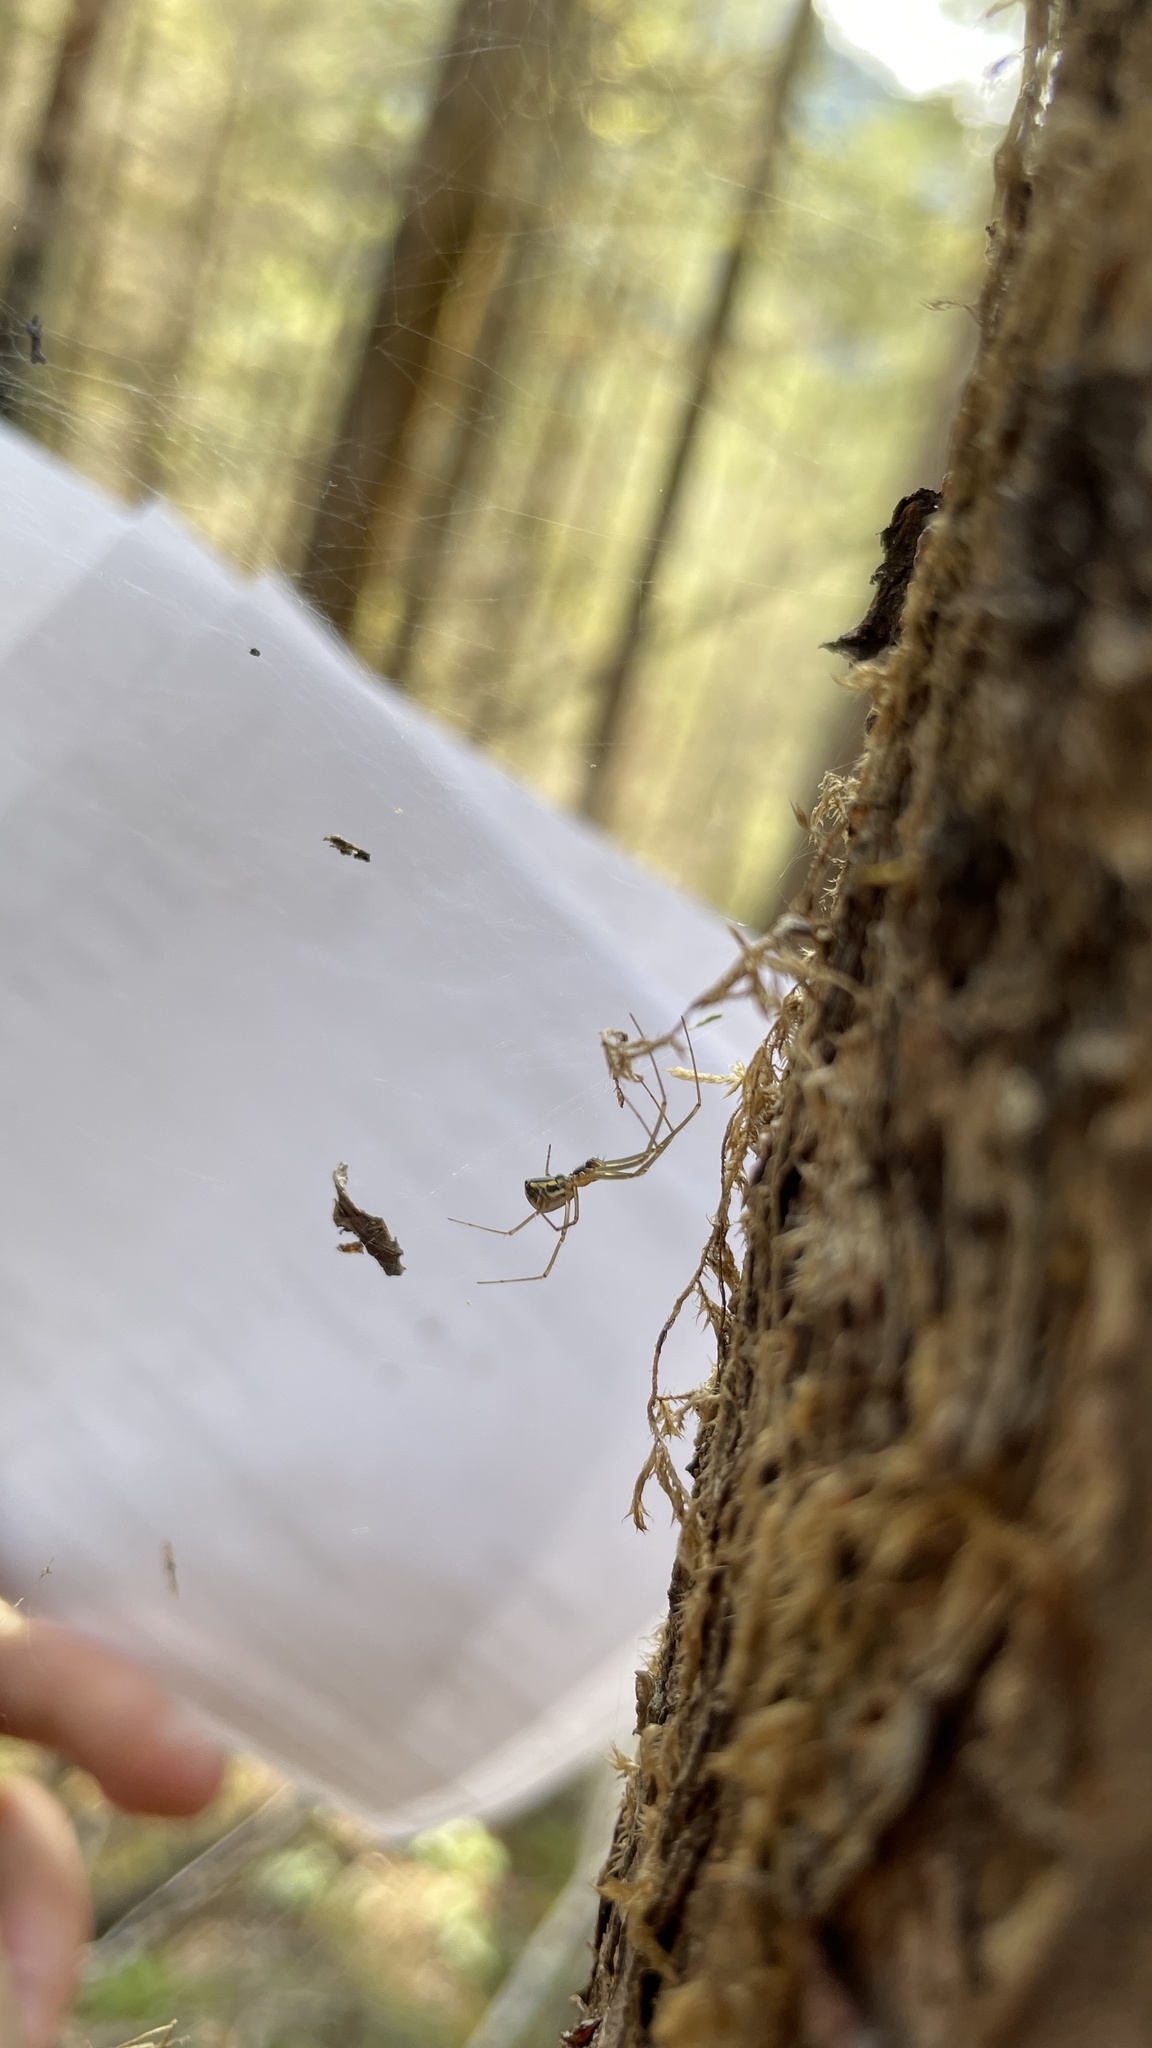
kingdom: Animalia
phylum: Arthropoda
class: Arachnida
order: Araneae
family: Linyphiidae
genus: Neriene
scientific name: Neriene radiata
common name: Filmy dome spider
